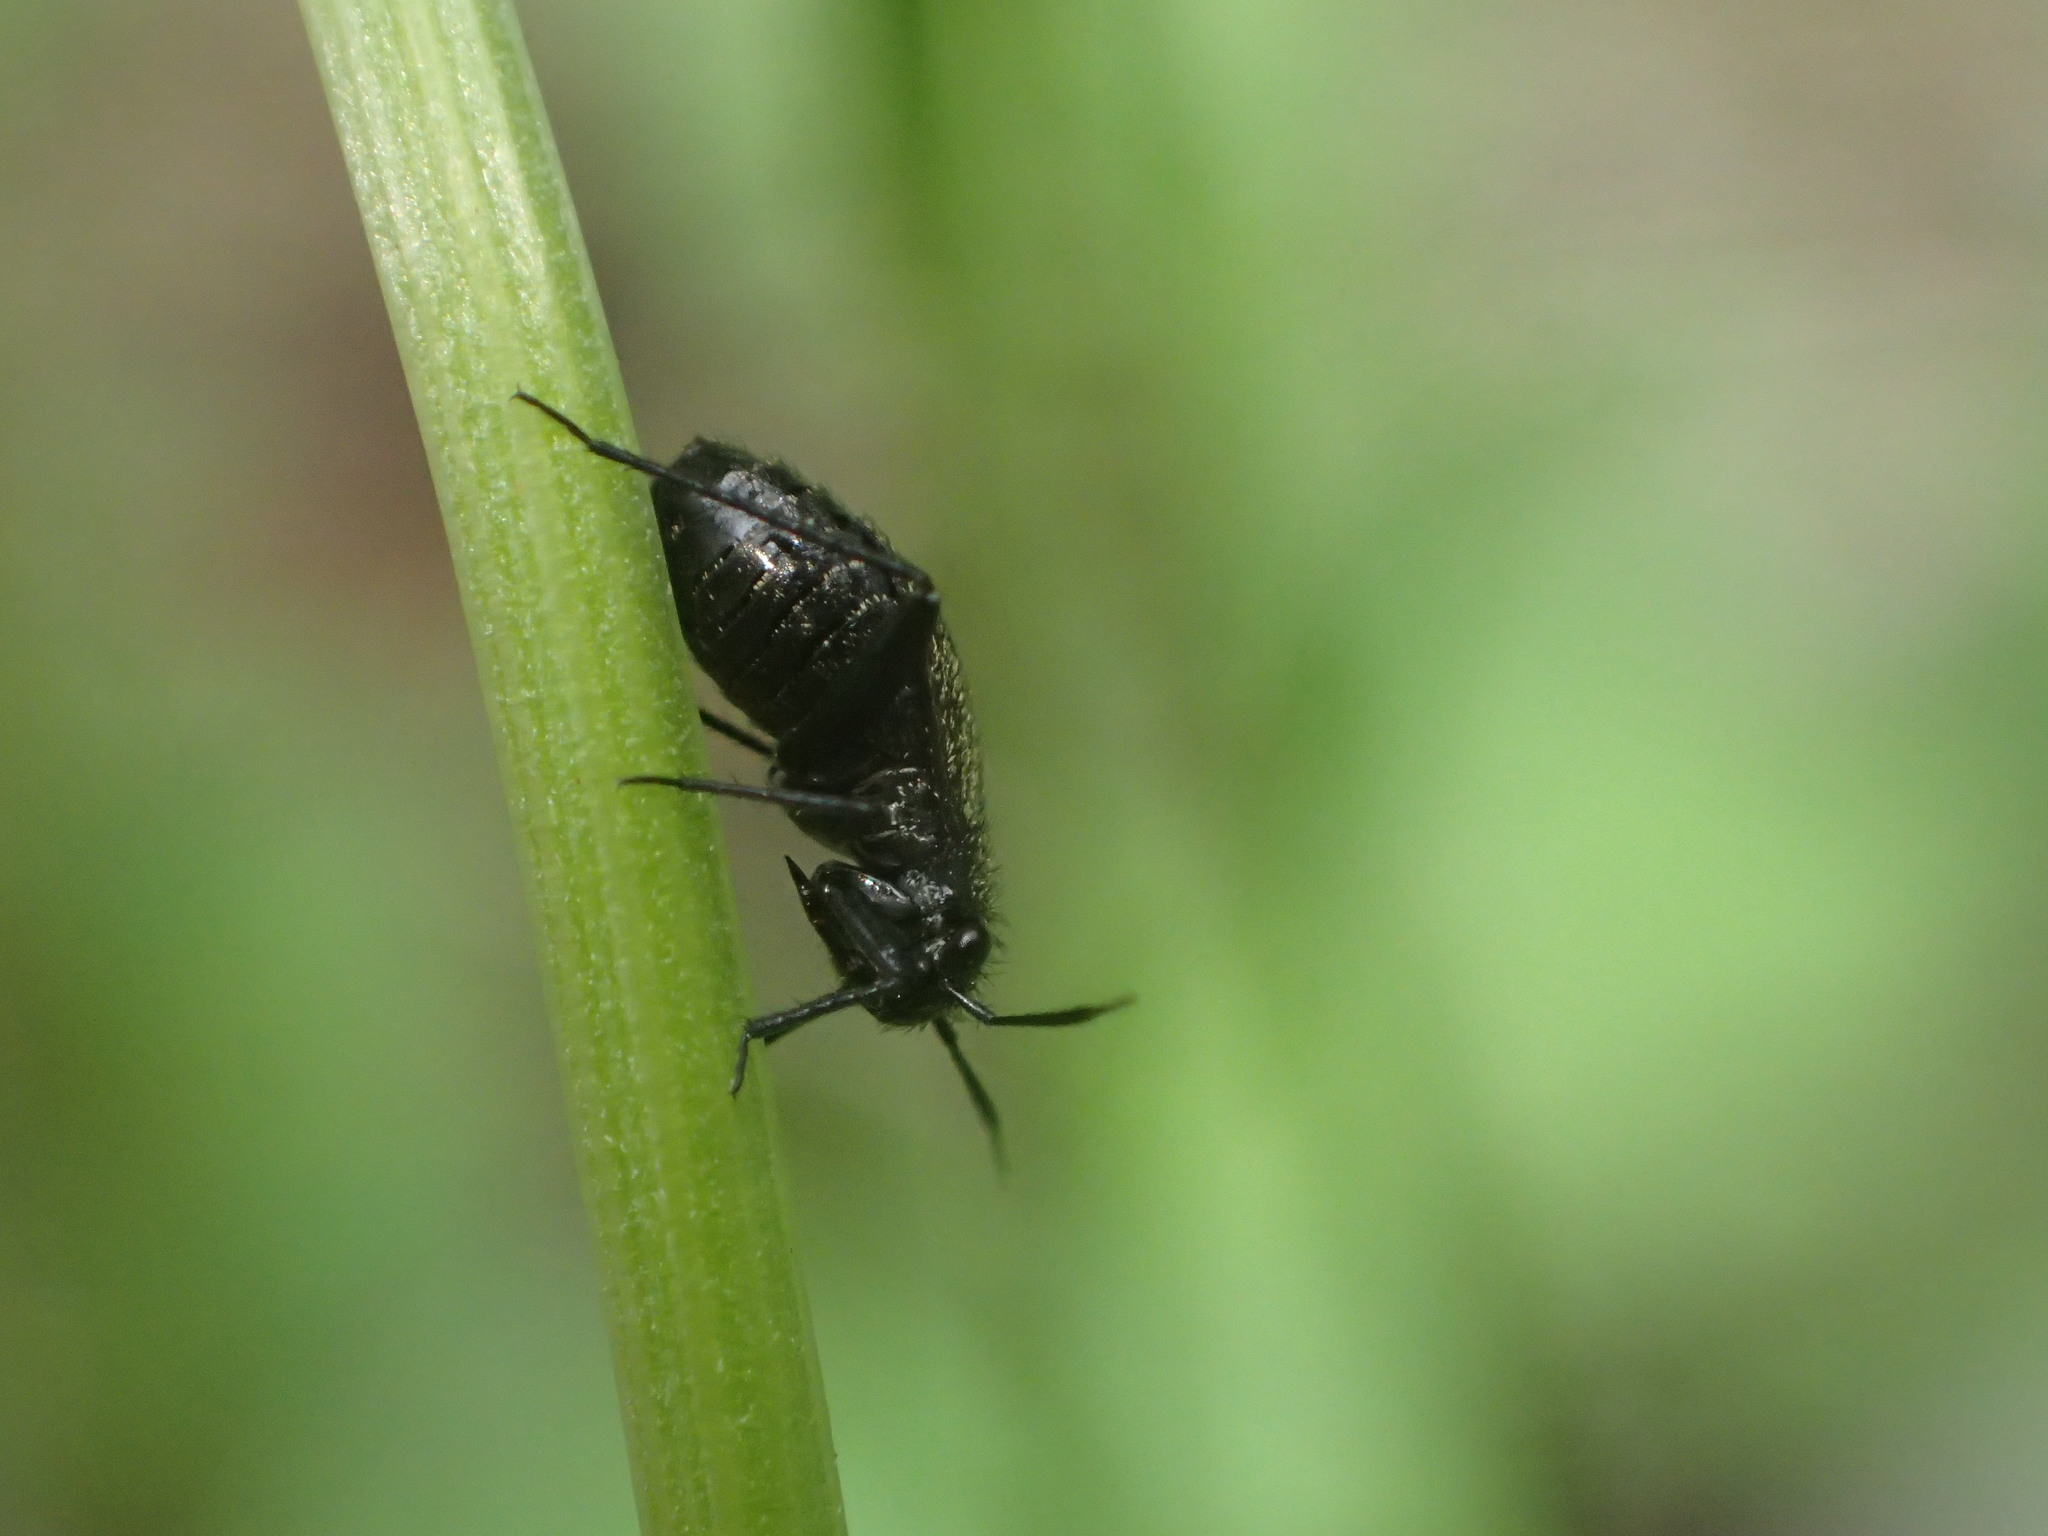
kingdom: Animalia
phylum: Arthropoda
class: Insecta
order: Hemiptera
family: Miridae
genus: Orthocephalus
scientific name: Orthocephalus coriaceus
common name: Plant bug
